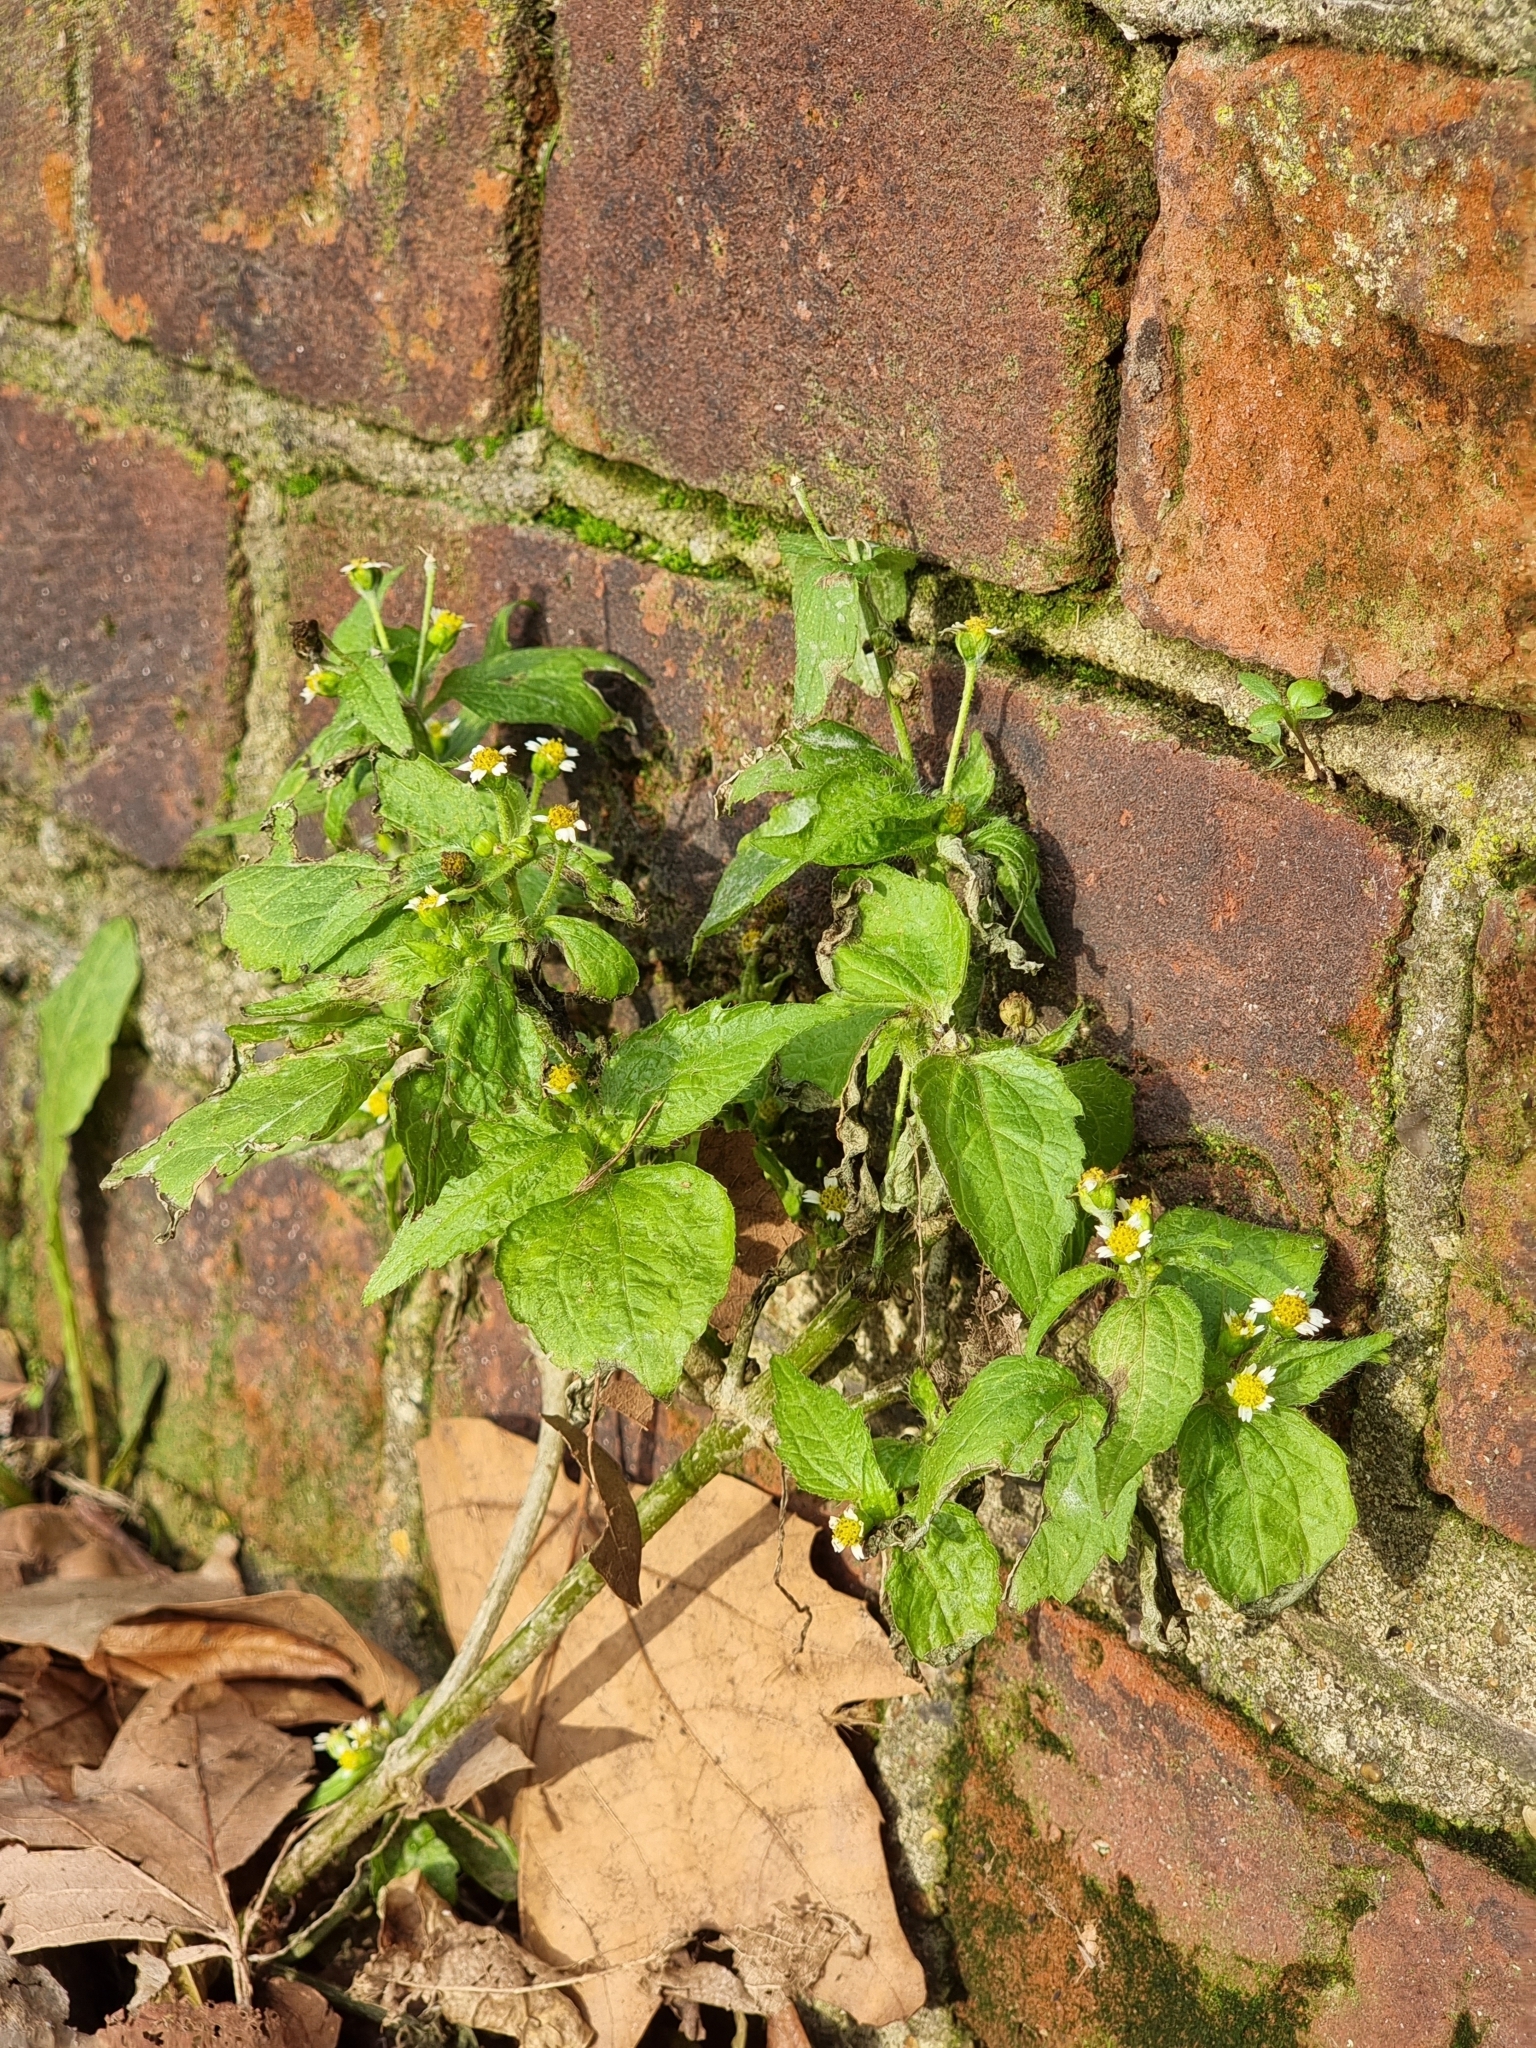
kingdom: Plantae
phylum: Tracheophyta
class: Magnoliopsida
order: Asterales
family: Asteraceae
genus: Galinsoga
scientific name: Galinsoga quadriradiata
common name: Shaggy soldier
